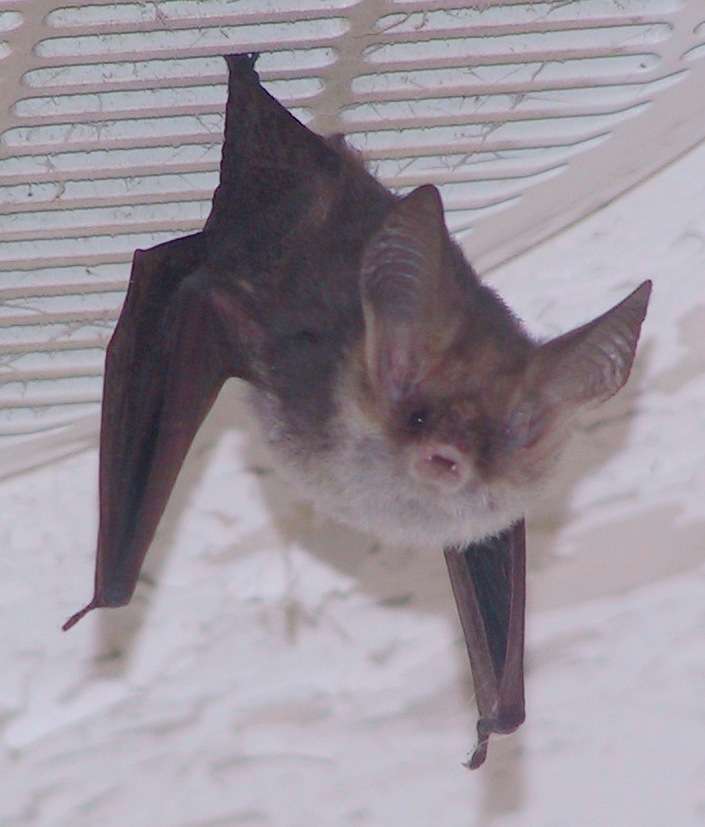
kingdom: Animalia
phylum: Chordata
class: Mammalia
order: Chiroptera
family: Vespertilionidae
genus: Nyctophilus
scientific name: Nyctophilus geoffroyi
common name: Lesser long-eared bat
